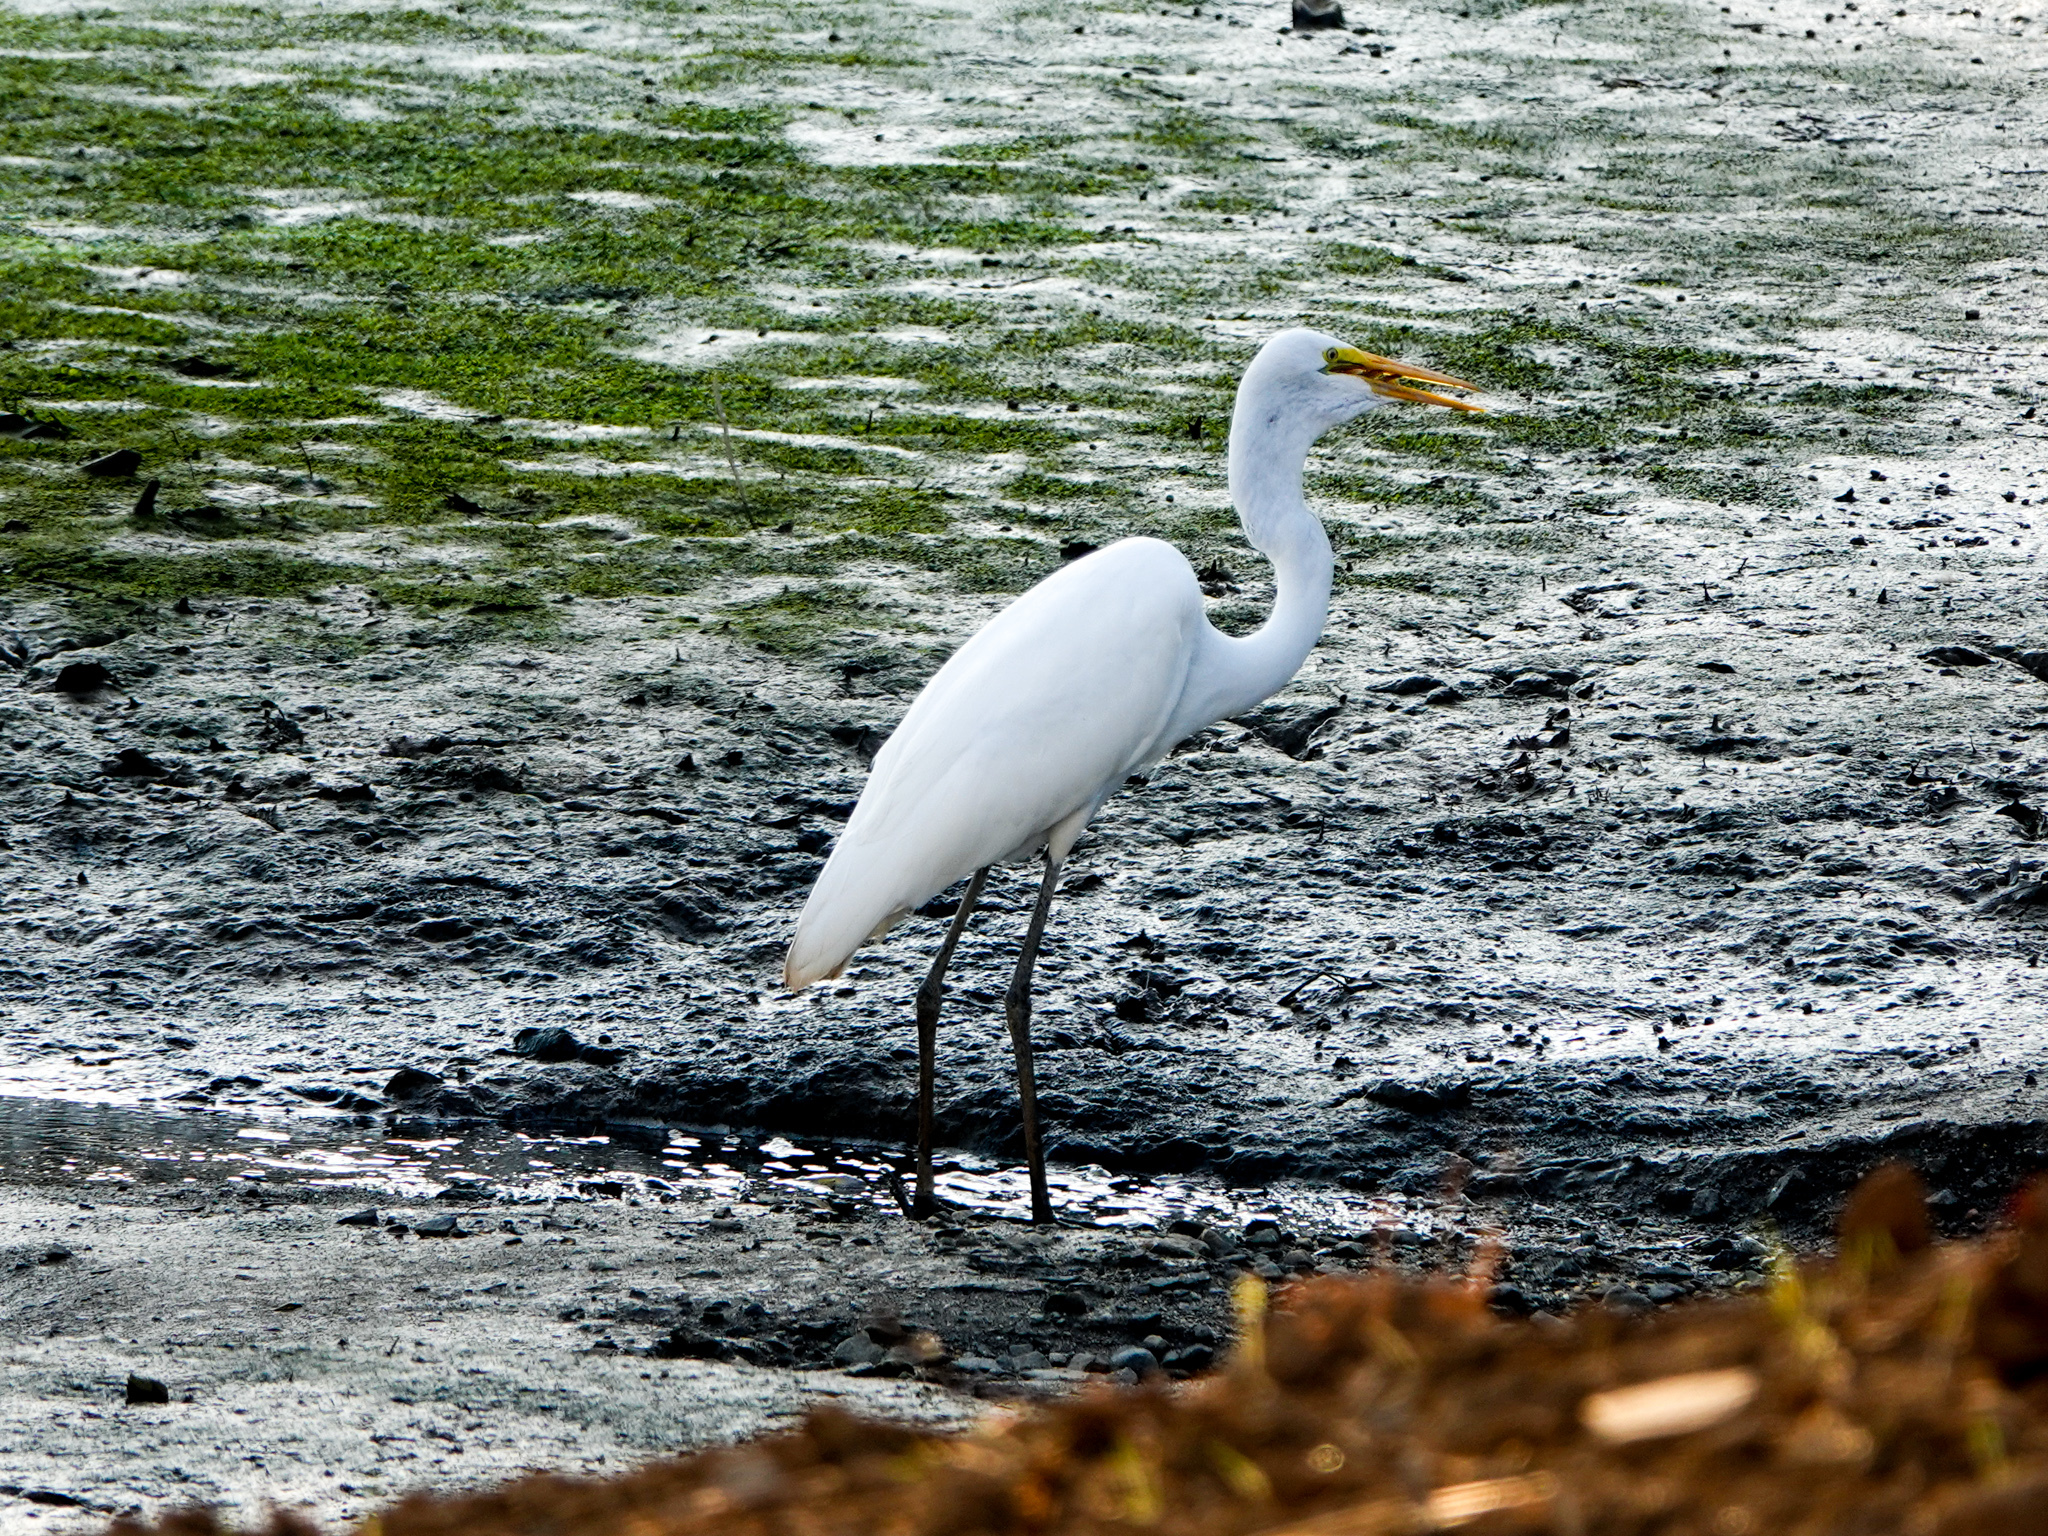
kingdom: Animalia
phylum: Chordata
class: Aves
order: Pelecaniformes
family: Ardeidae
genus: Ardea
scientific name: Ardea alba
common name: Great egret
